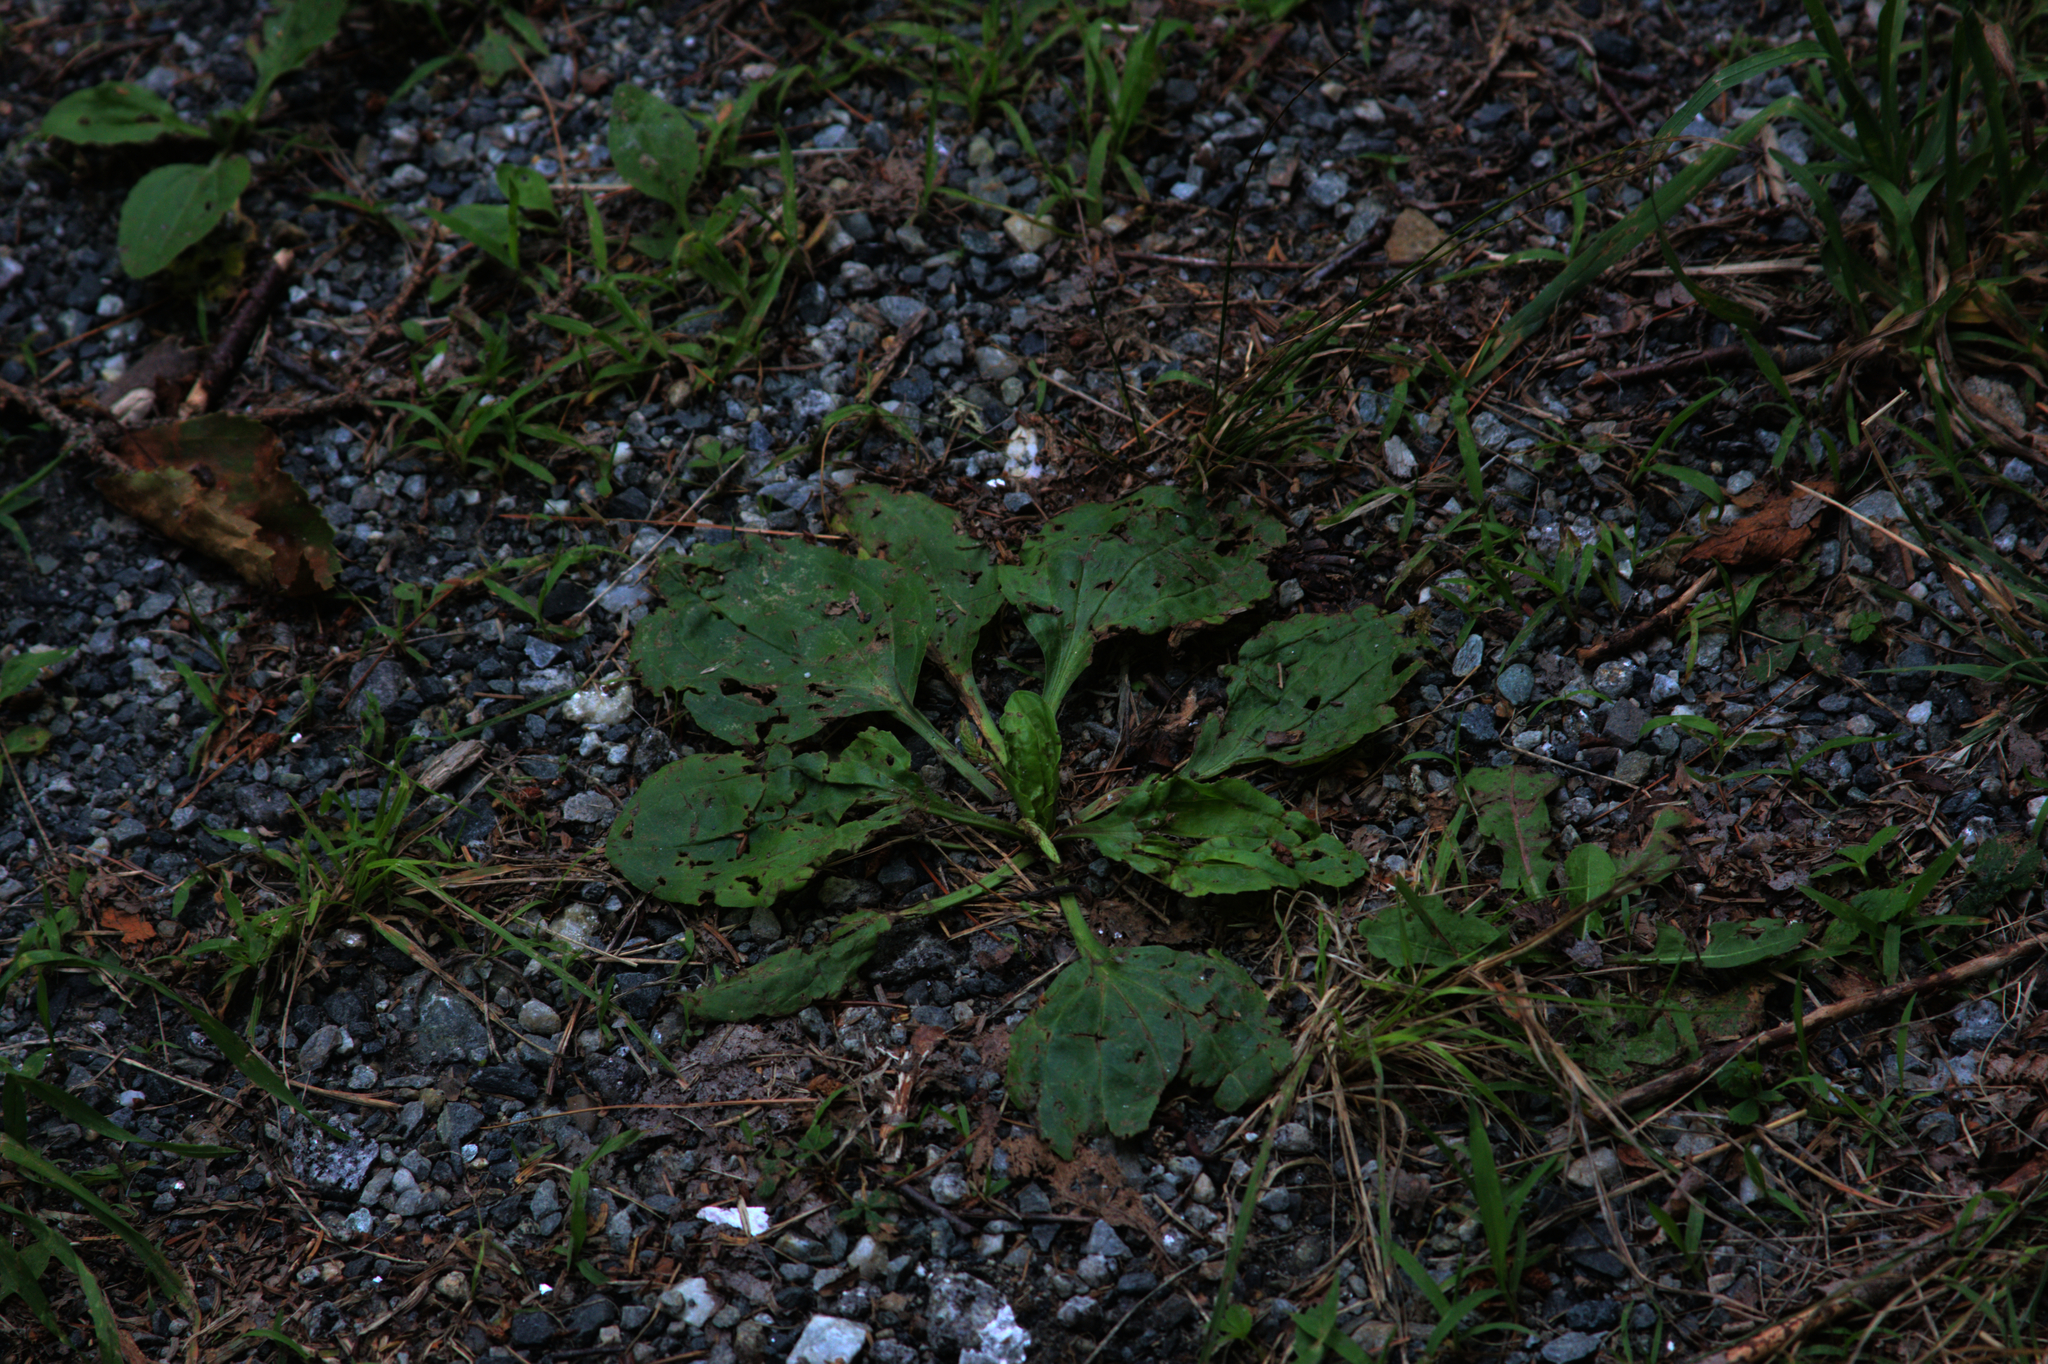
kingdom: Plantae
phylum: Tracheophyta
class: Magnoliopsida
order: Lamiales
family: Plantaginaceae
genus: Plantago
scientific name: Plantago major
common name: Common plantain
